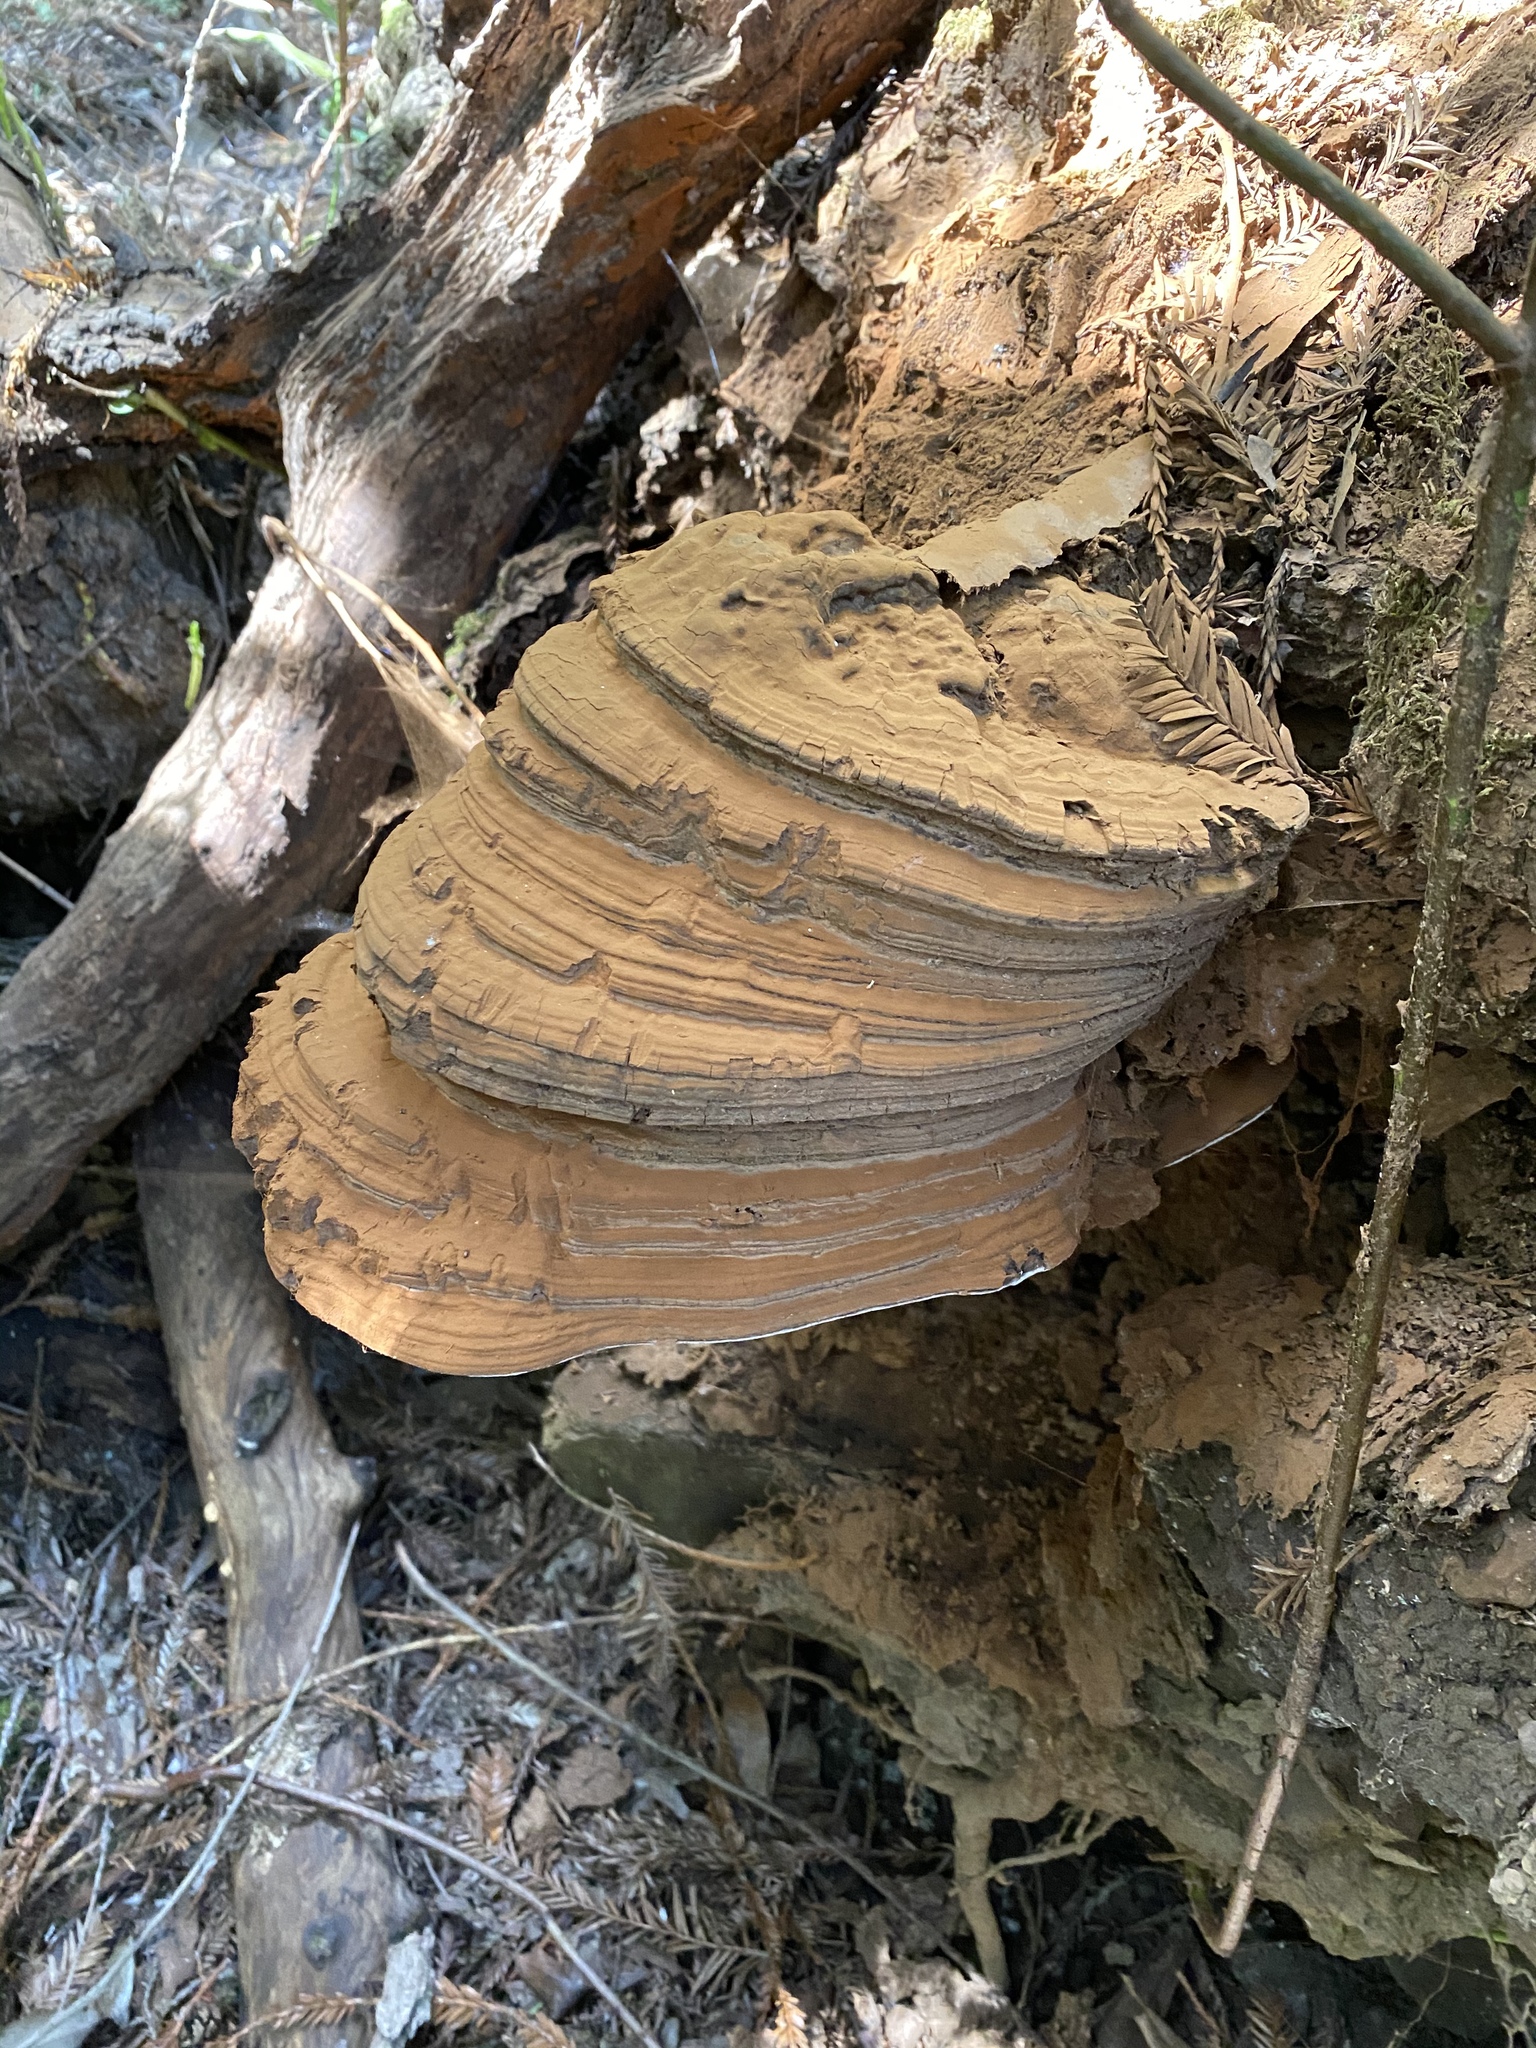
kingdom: Fungi
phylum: Basidiomycota
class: Agaricomycetes
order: Polyporales
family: Polyporaceae
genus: Ganoderma
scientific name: Ganoderma brownii
